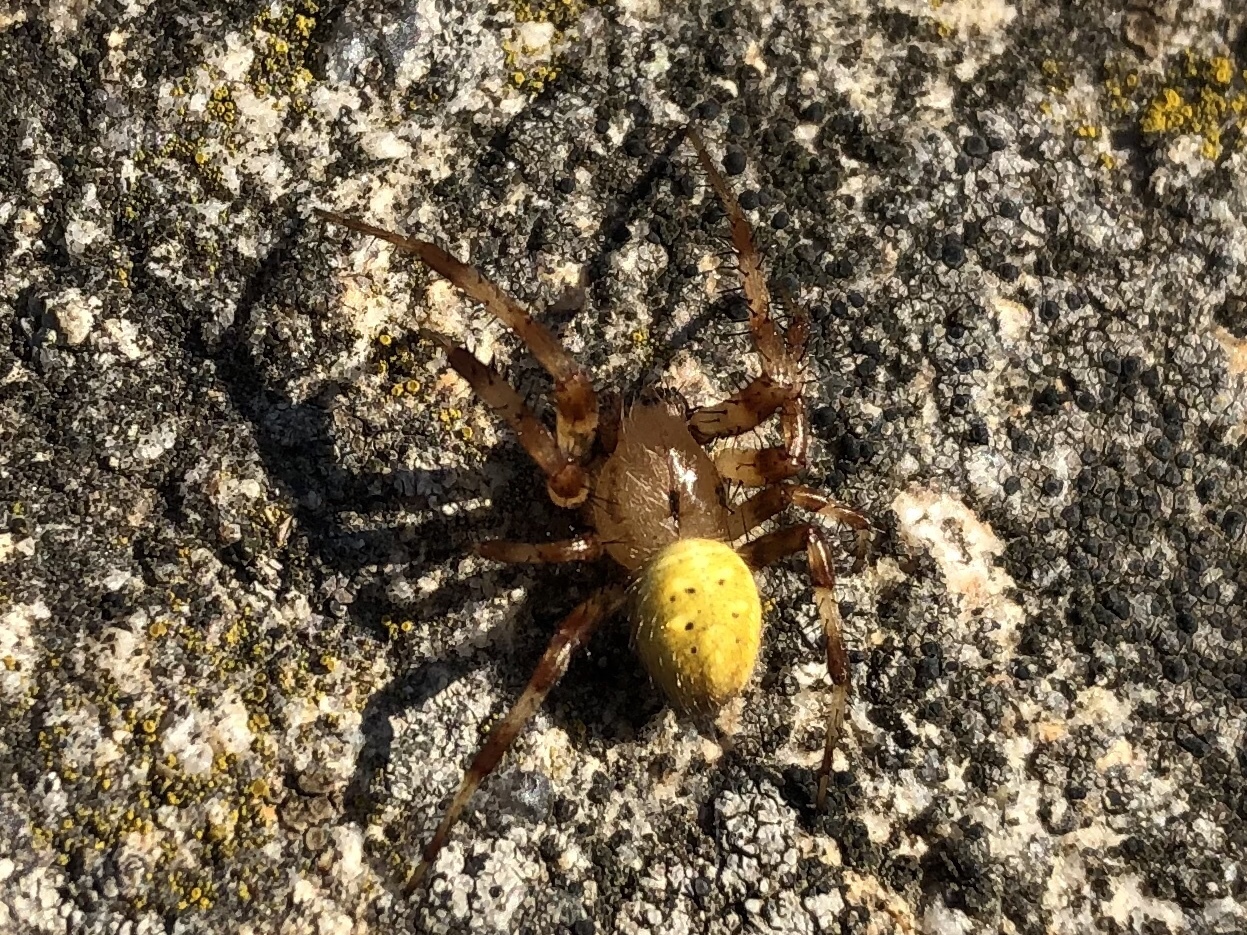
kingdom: Animalia
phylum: Arthropoda
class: Arachnida
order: Araneae
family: Araneidae
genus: Araneus
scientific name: Araneus quadratus
